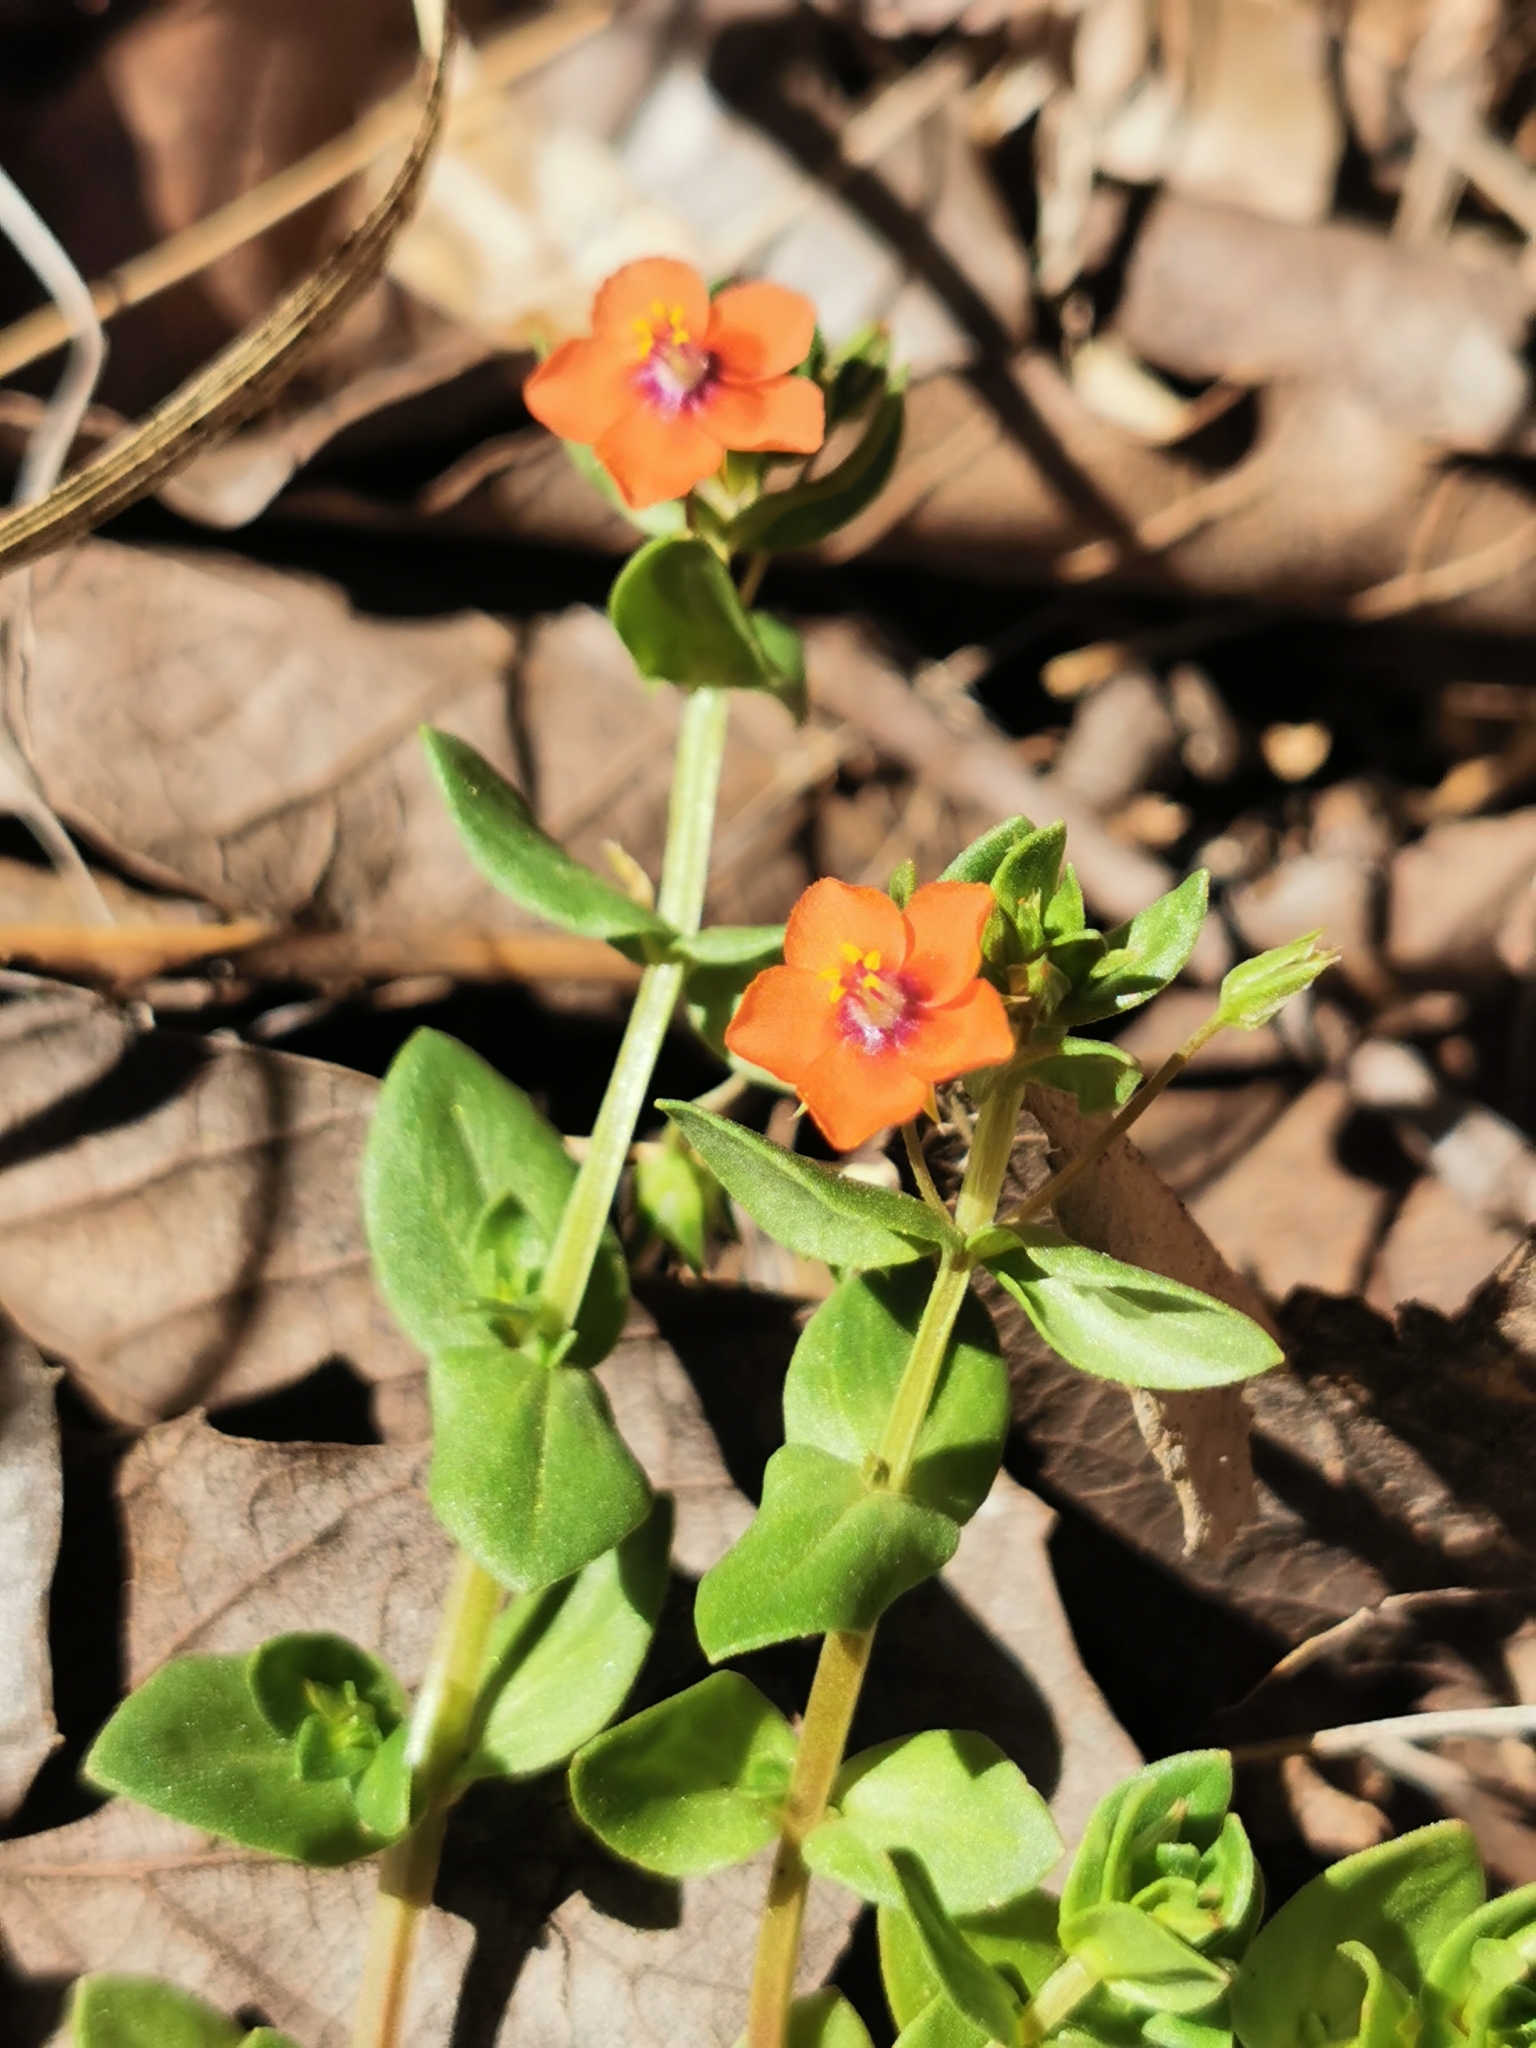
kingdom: Plantae
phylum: Tracheophyta
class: Magnoliopsida
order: Ericales
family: Primulaceae
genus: Lysimachia
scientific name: Lysimachia arvensis
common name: Scarlet pimpernel
